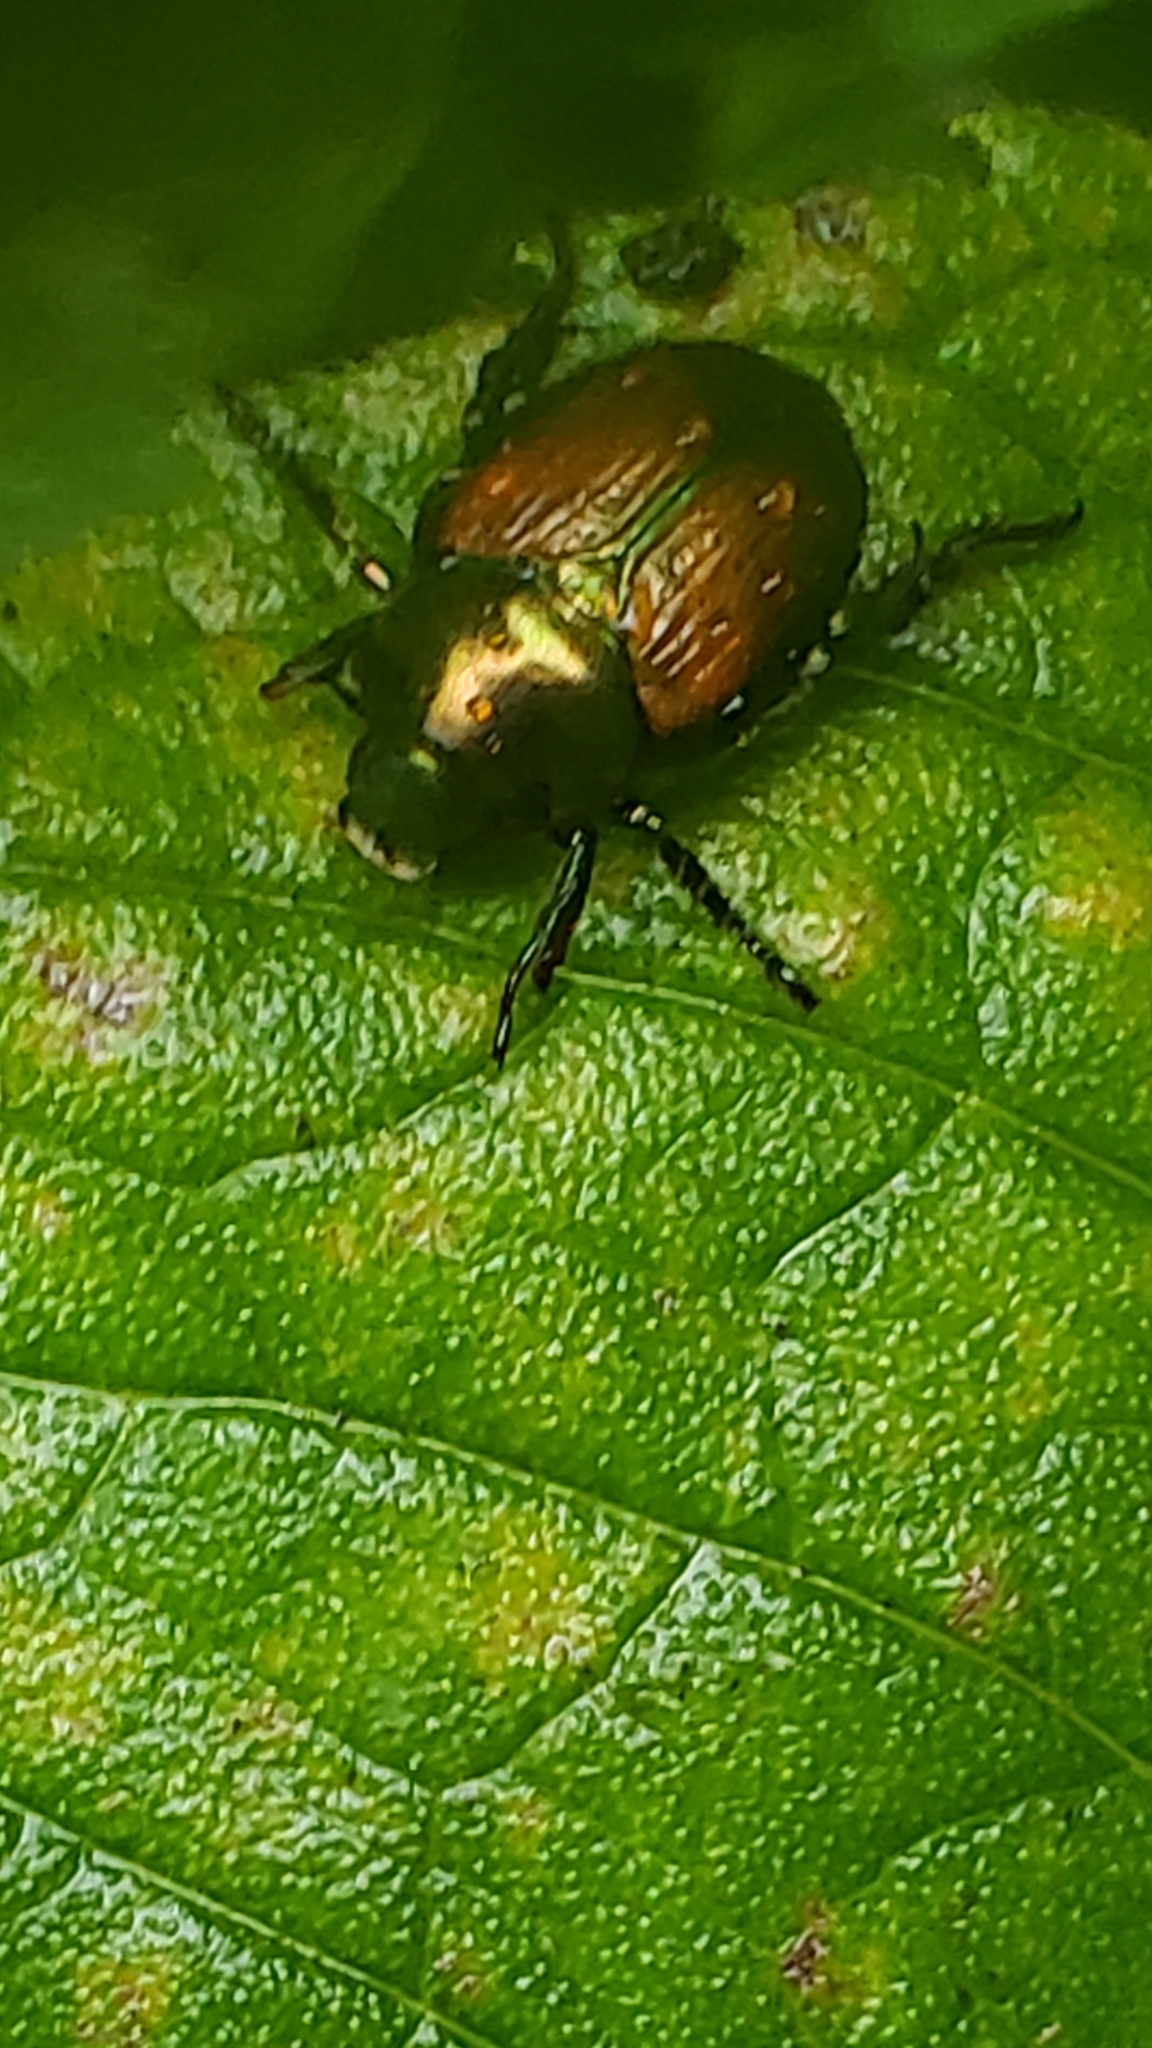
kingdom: Animalia
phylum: Arthropoda
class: Insecta
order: Coleoptera
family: Scarabaeidae
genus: Popillia
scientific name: Popillia japonica
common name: Japanese beetle
